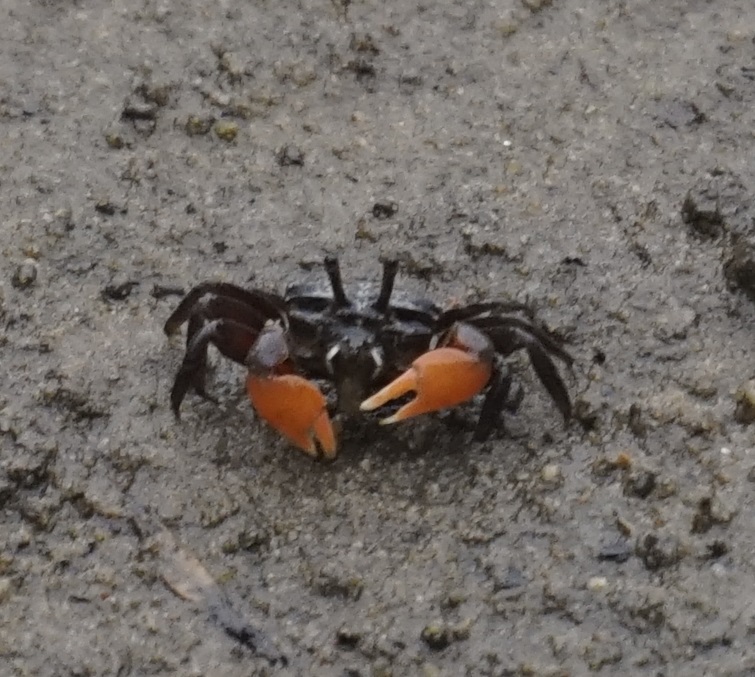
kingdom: Animalia
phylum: Arthropoda
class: Malacostraca
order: Decapoda
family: Heloeciidae
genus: Heloecius
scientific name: Heloecius cordiformis
